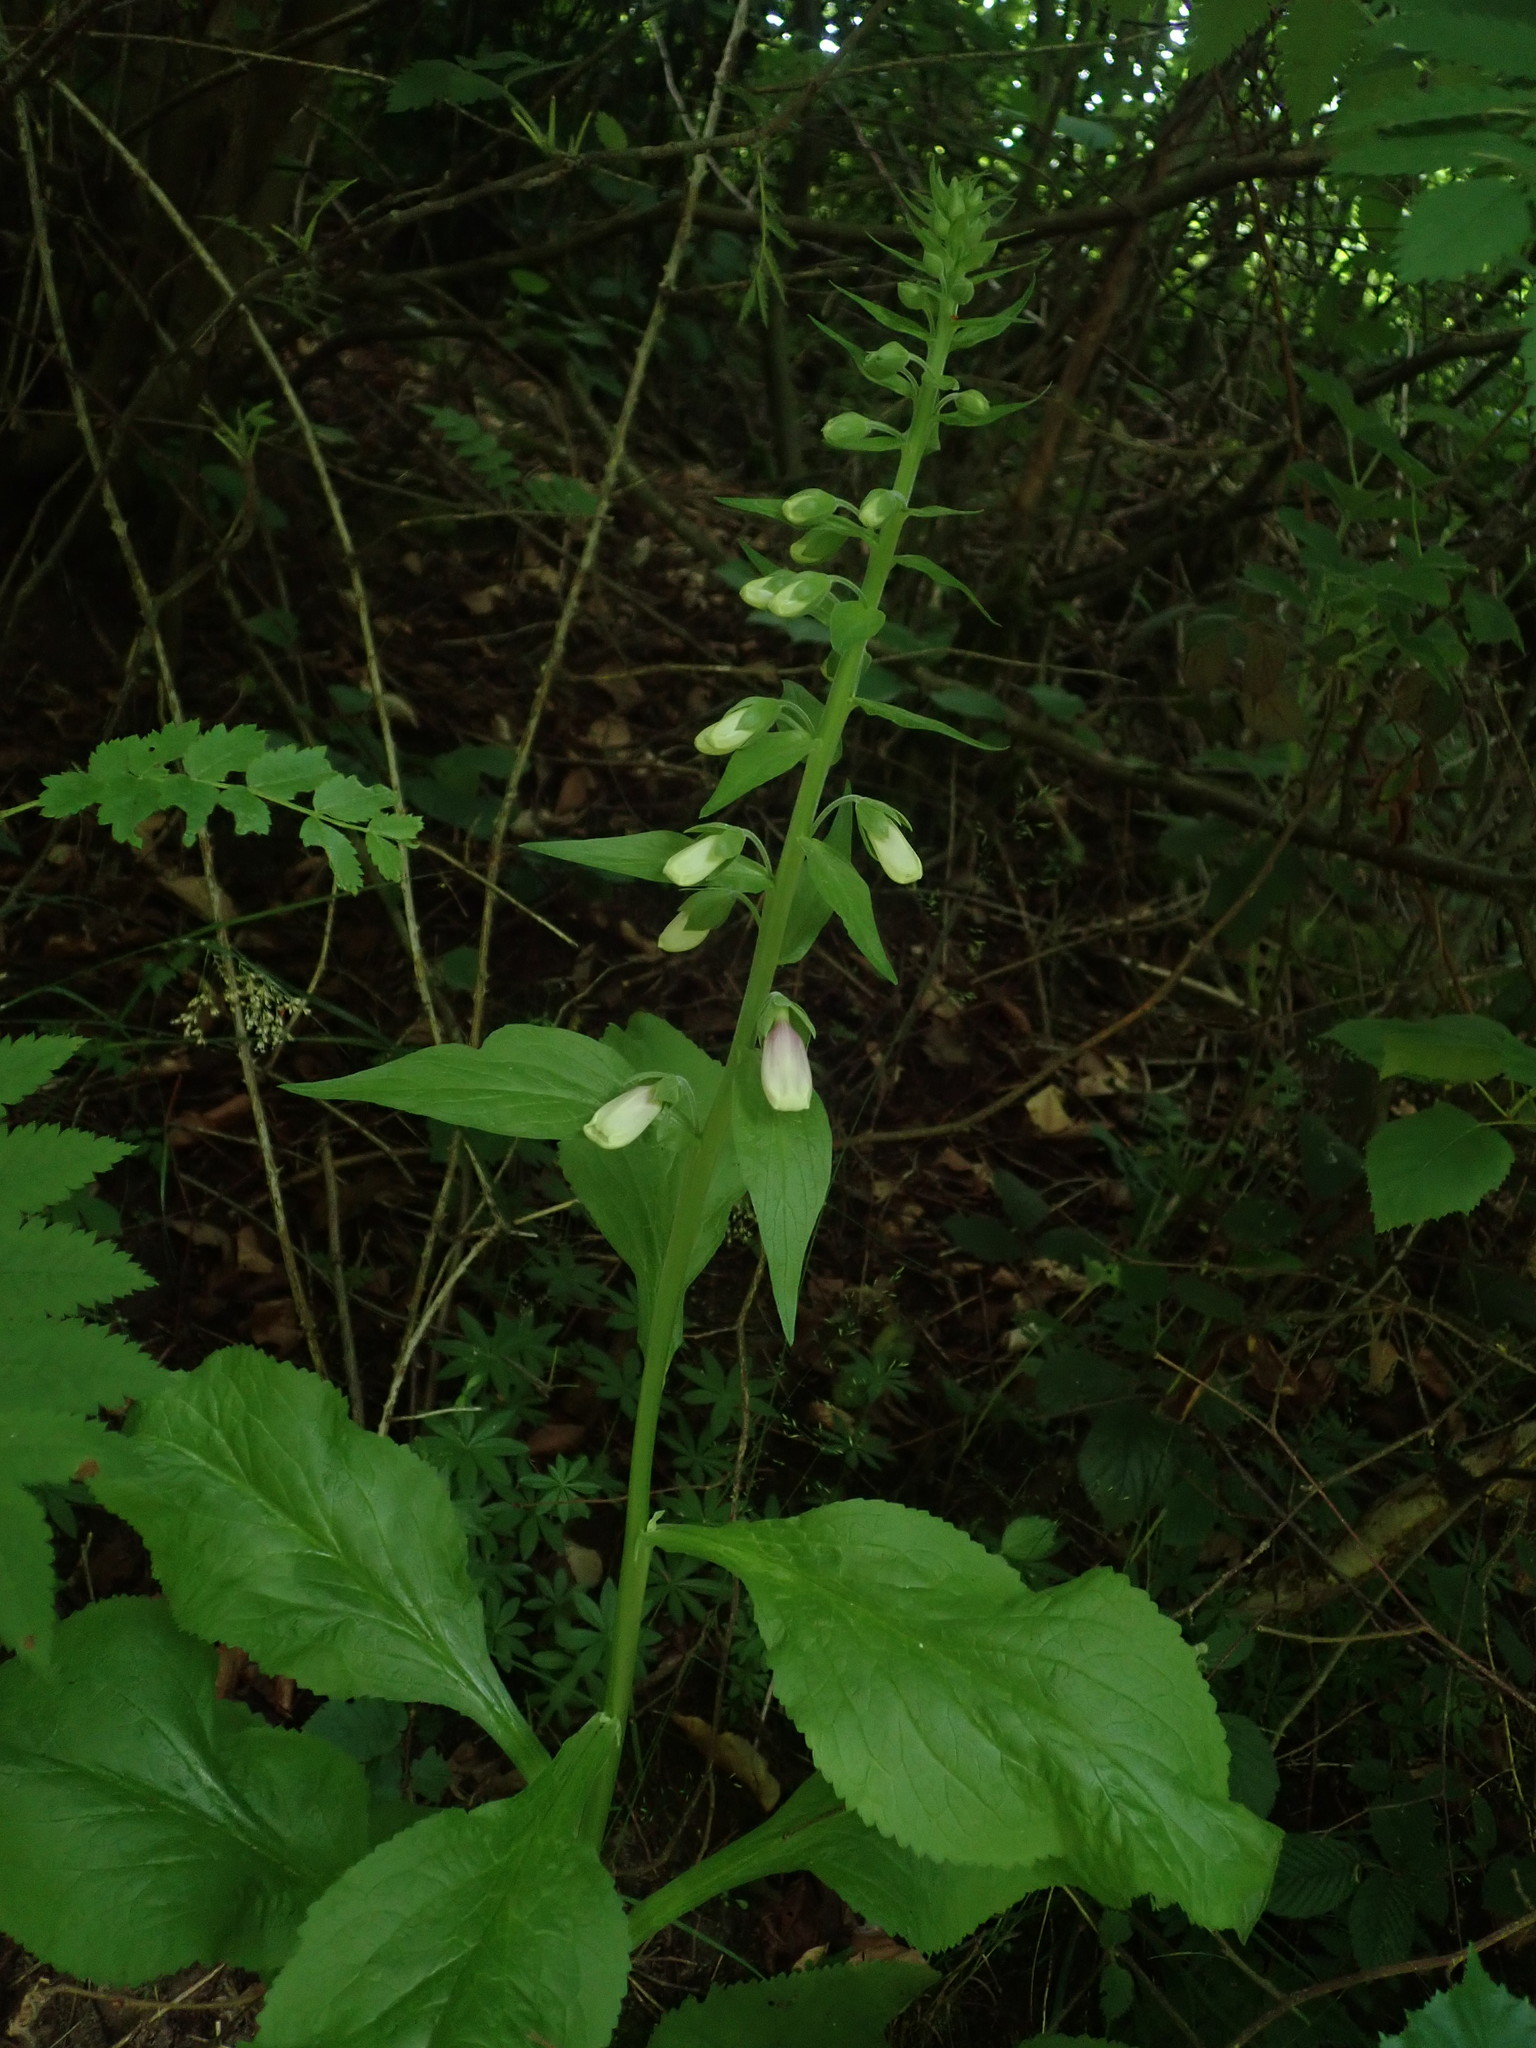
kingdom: Plantae
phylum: Tracheophyta
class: Magnoliopsida
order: Lamiales
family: Plantaginaceae
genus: Digitalis
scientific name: Digitalis purpurea
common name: Foxglove
